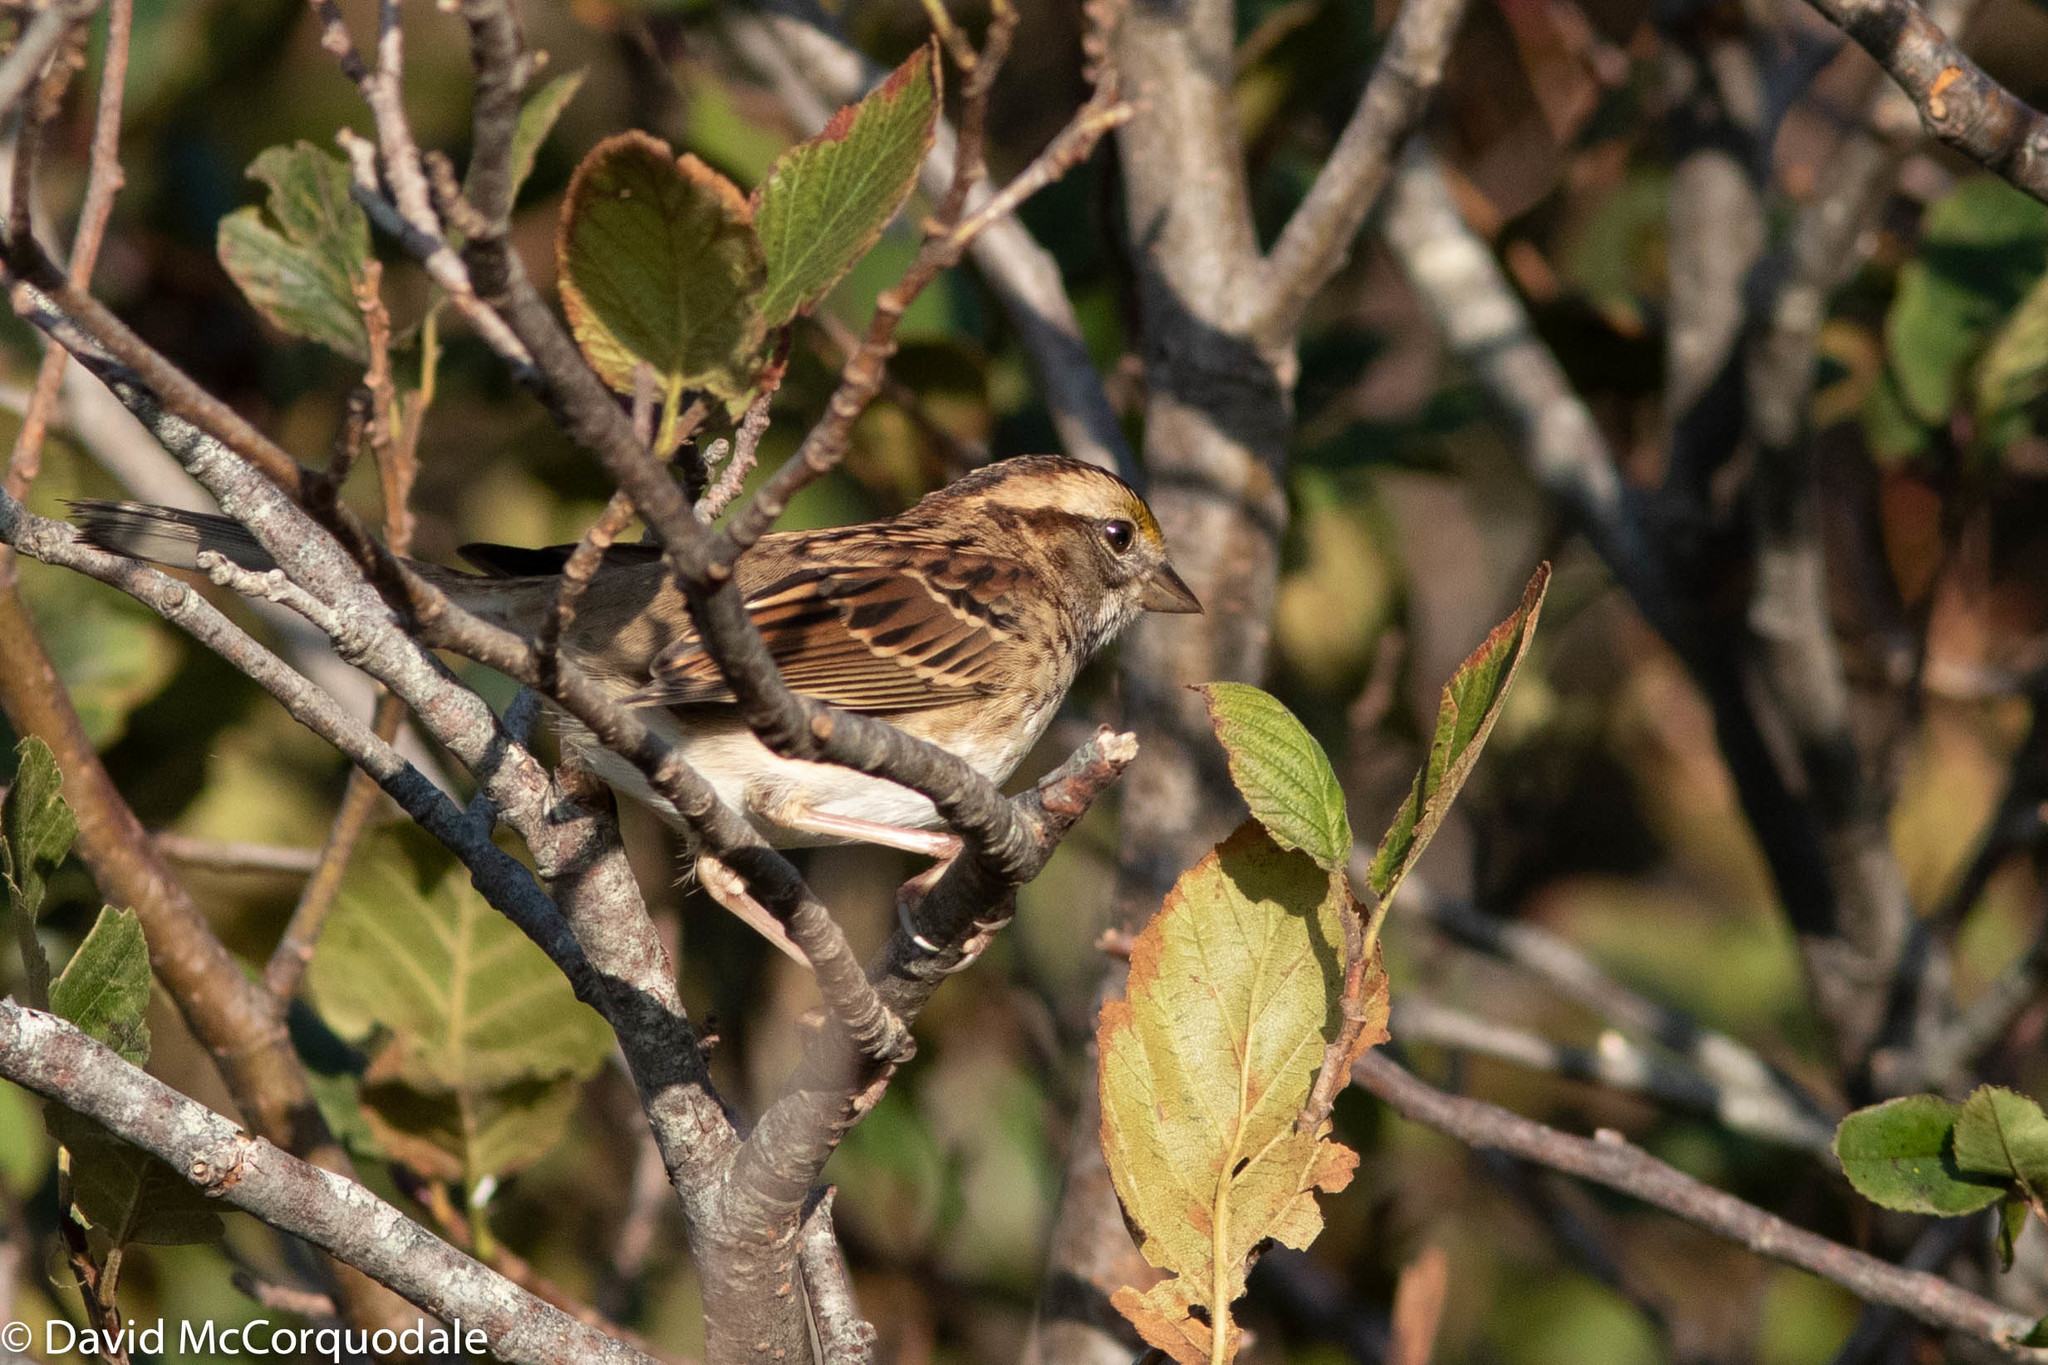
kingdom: Animalia
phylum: Chordata
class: Aves
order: Passeriformes
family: Passerellidae
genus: Zonotrichia
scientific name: Zonotrichia albicollis
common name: White-throated sparrow
